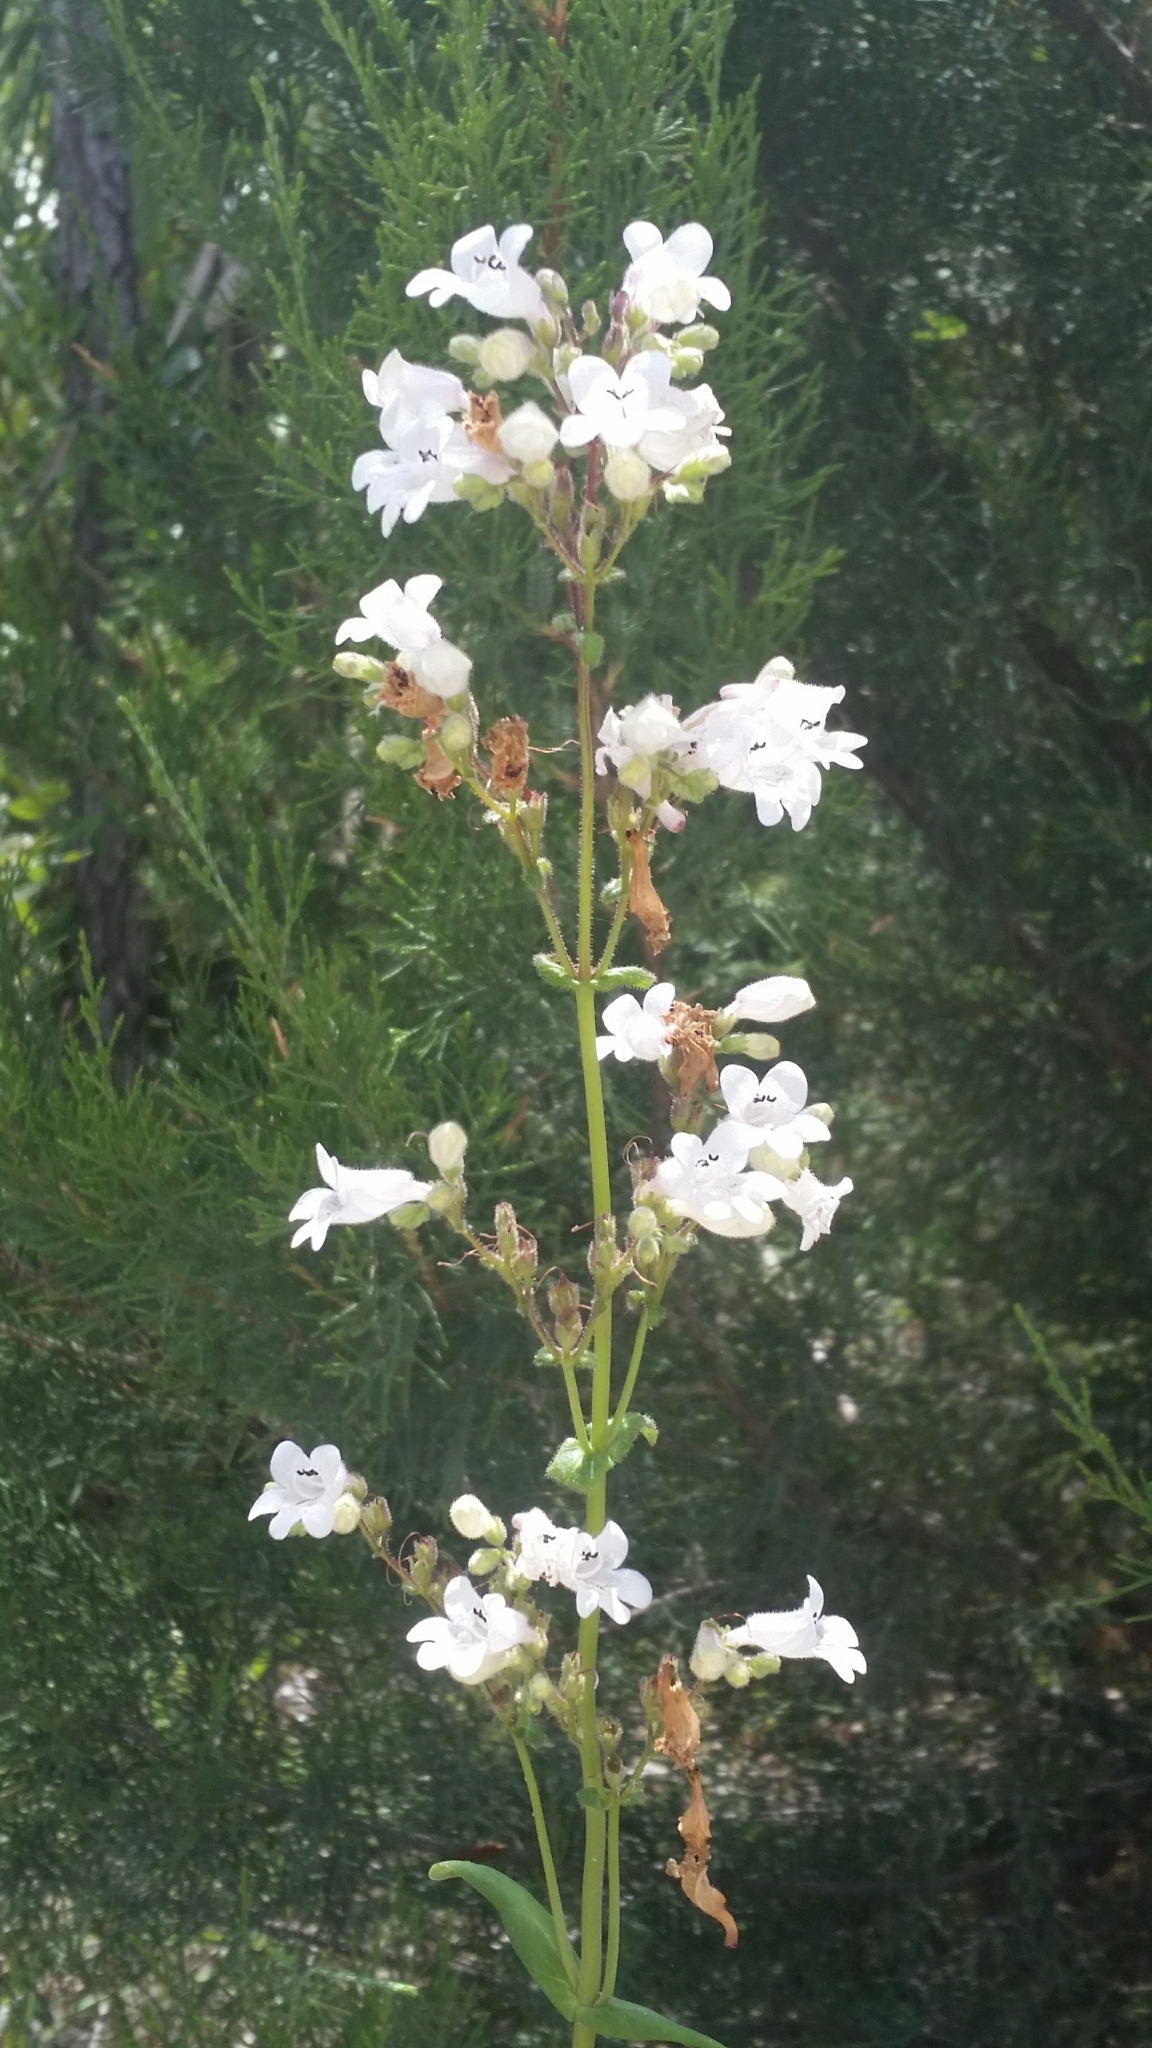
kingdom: Plantae
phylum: Tracheophyta
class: Magnoliopsida
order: Lamiales
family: Plantaginaceae
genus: Penstemon
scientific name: Penstemon multiflorus
